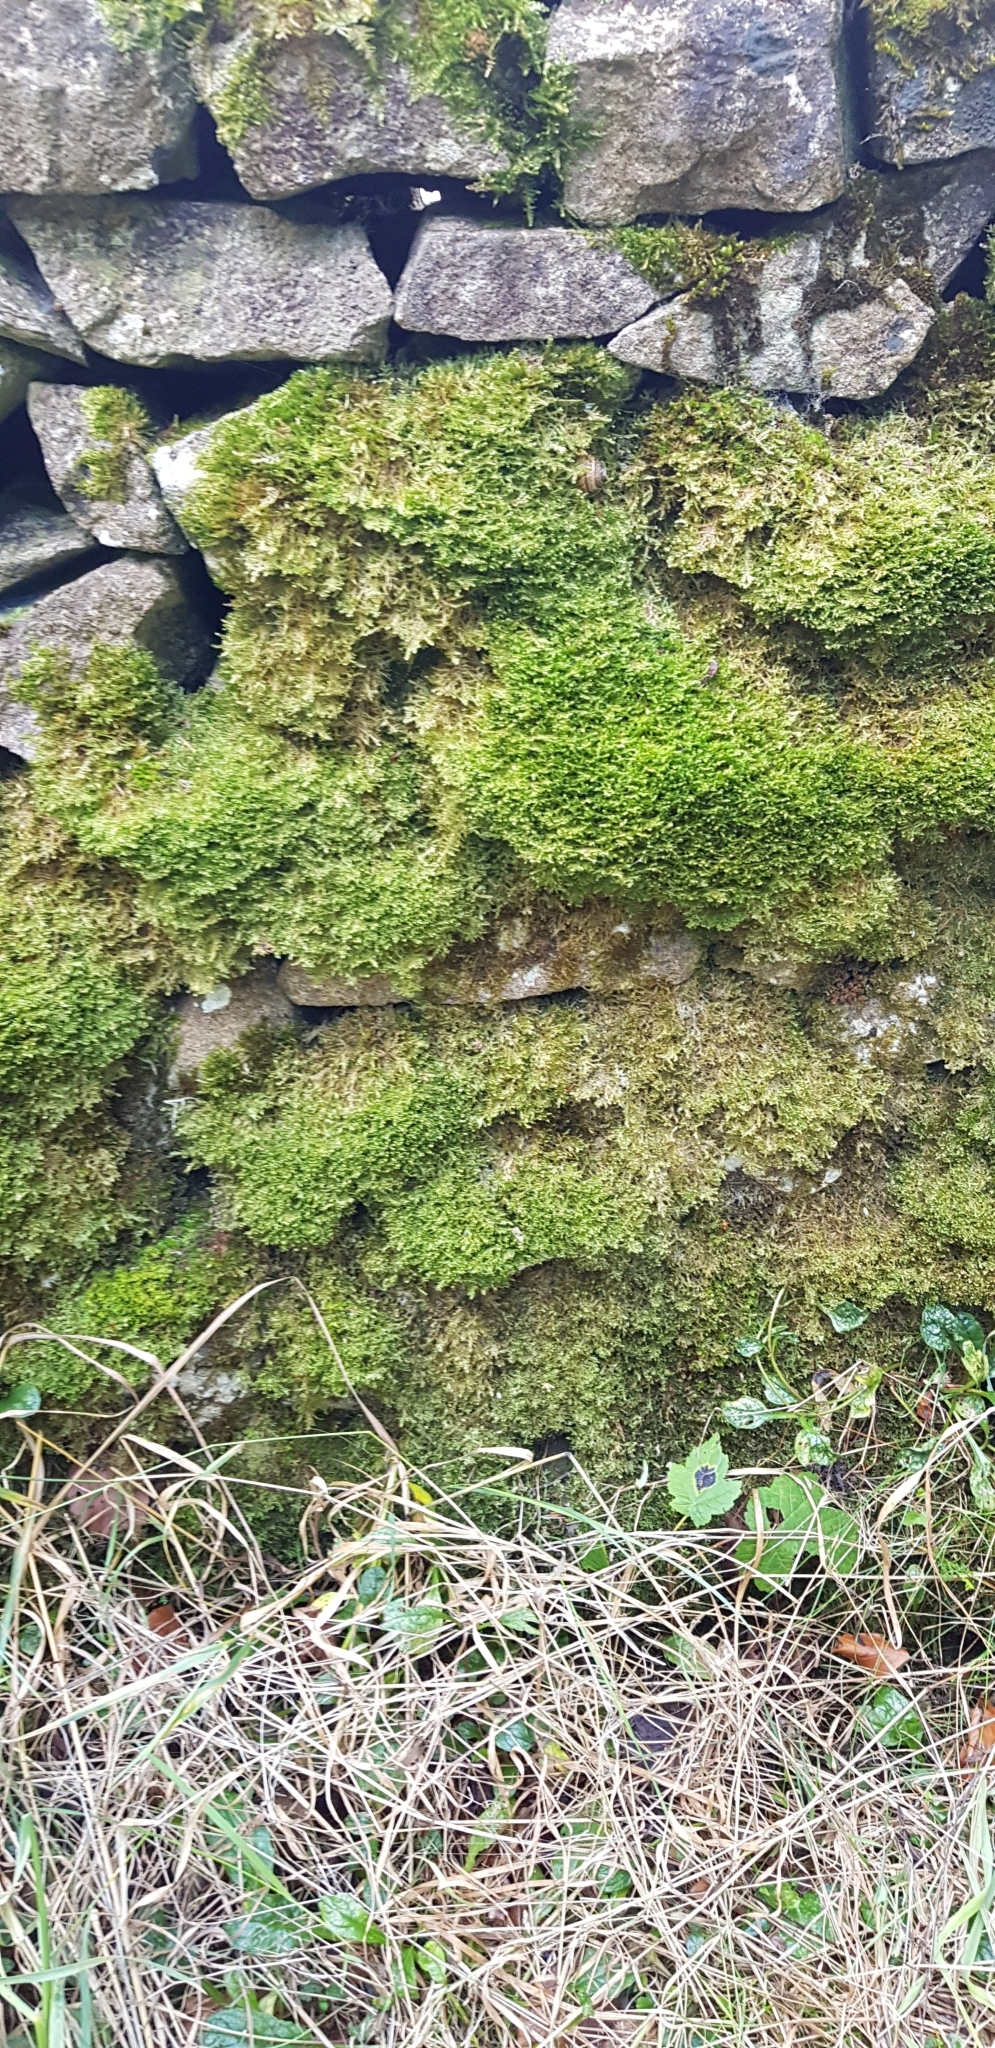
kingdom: Plantae
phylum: Bryophyta
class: Bryopsida
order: Hypnales
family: Neckeraceae
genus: Alleniella
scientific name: Alleniella complanata
